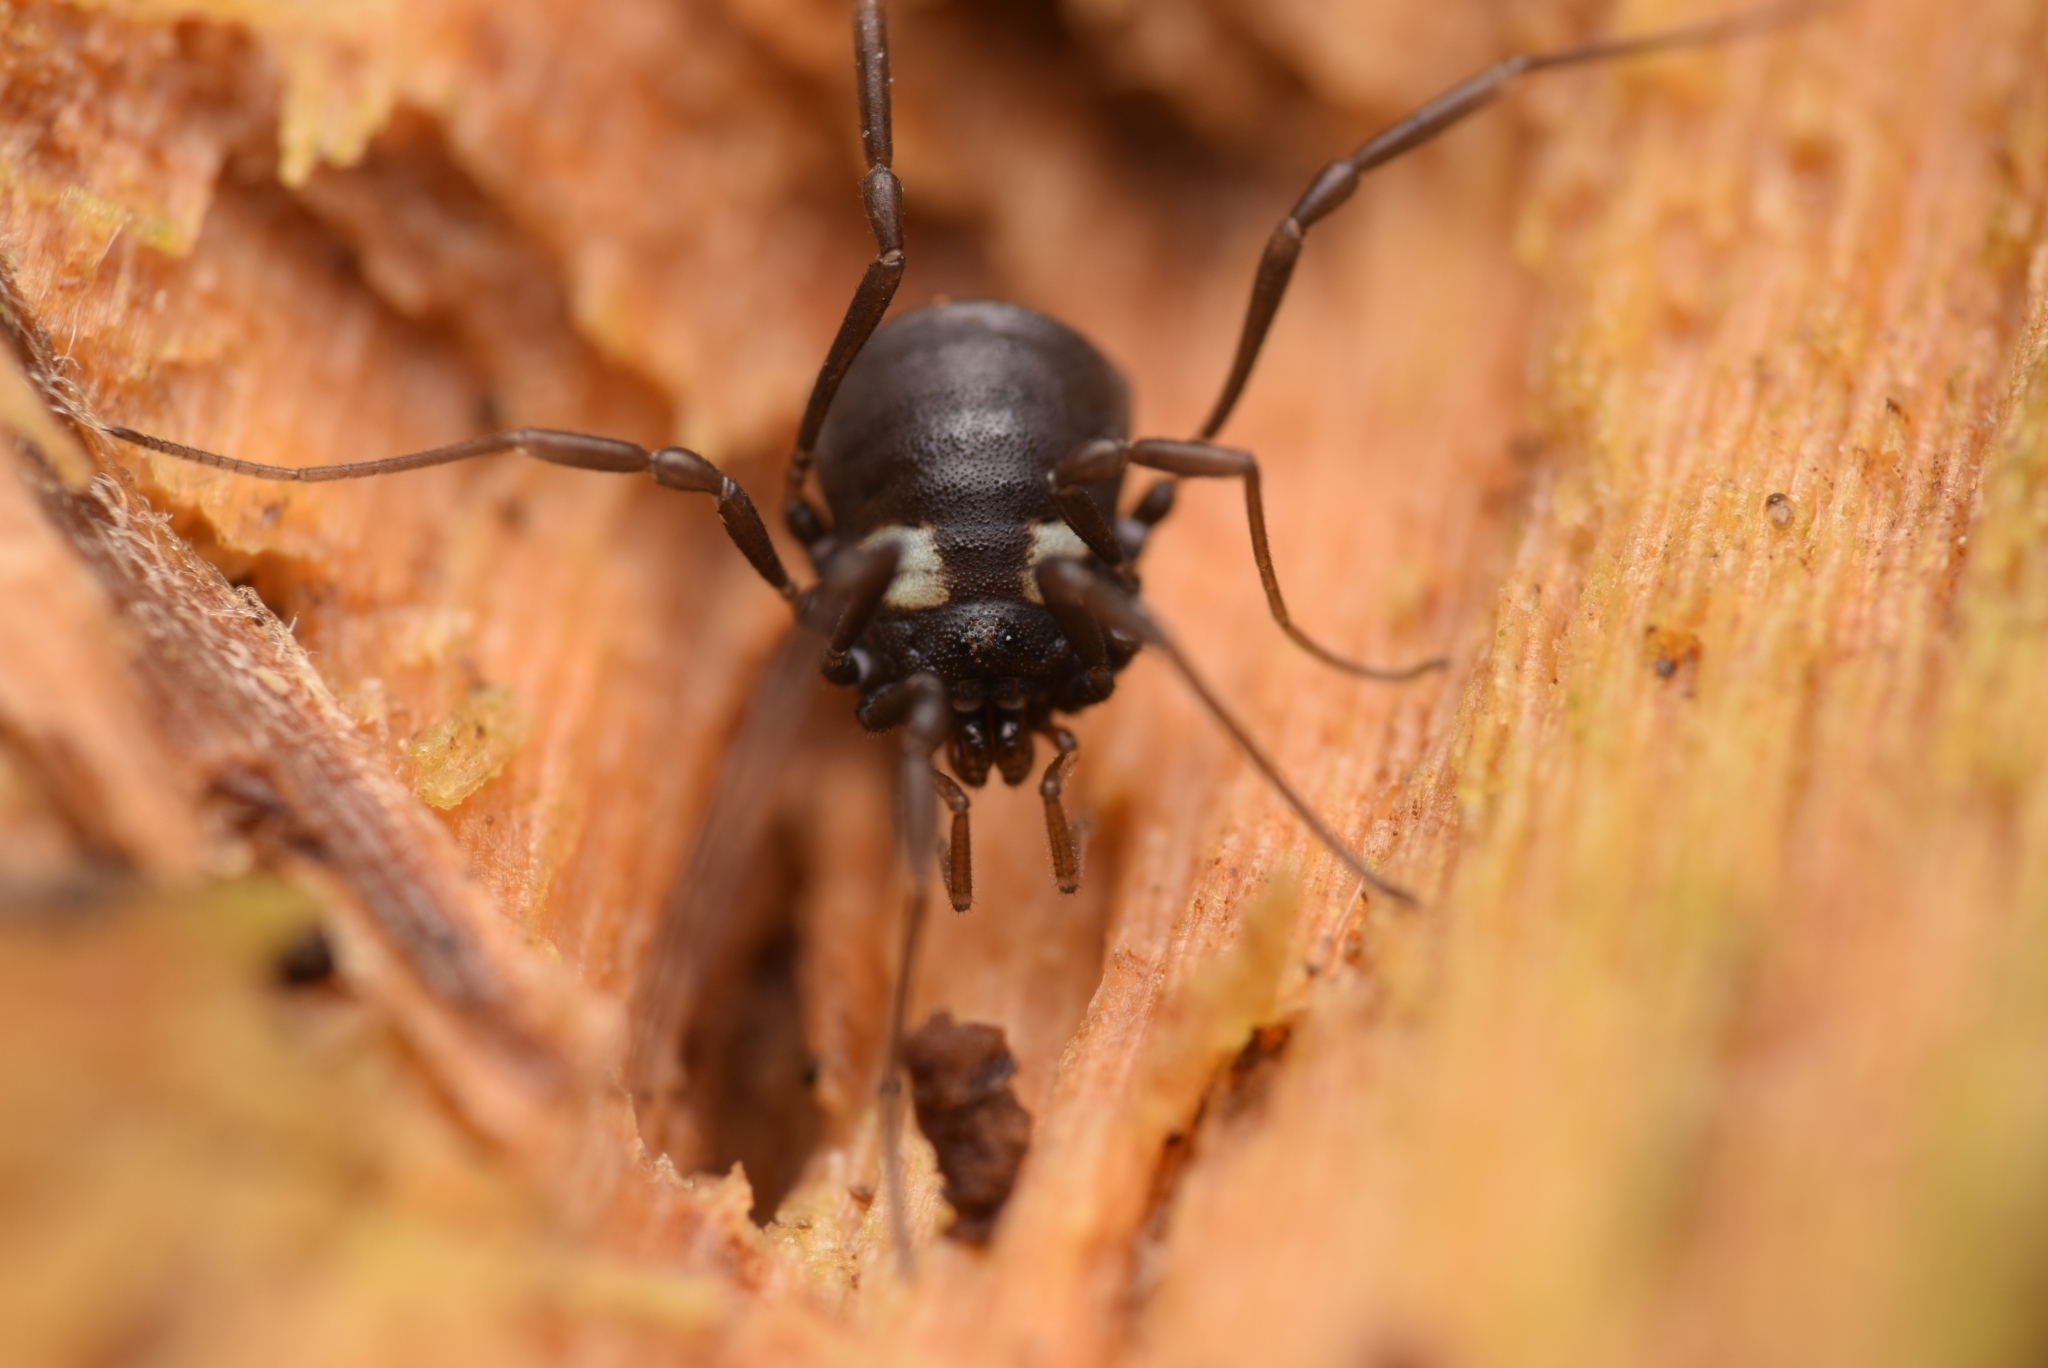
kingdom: Animalia
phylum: Arthropoda
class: Arachnida
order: Opiliones
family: Nemastomatidae
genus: Nemastoma
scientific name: Nemastoma bimaculatum
